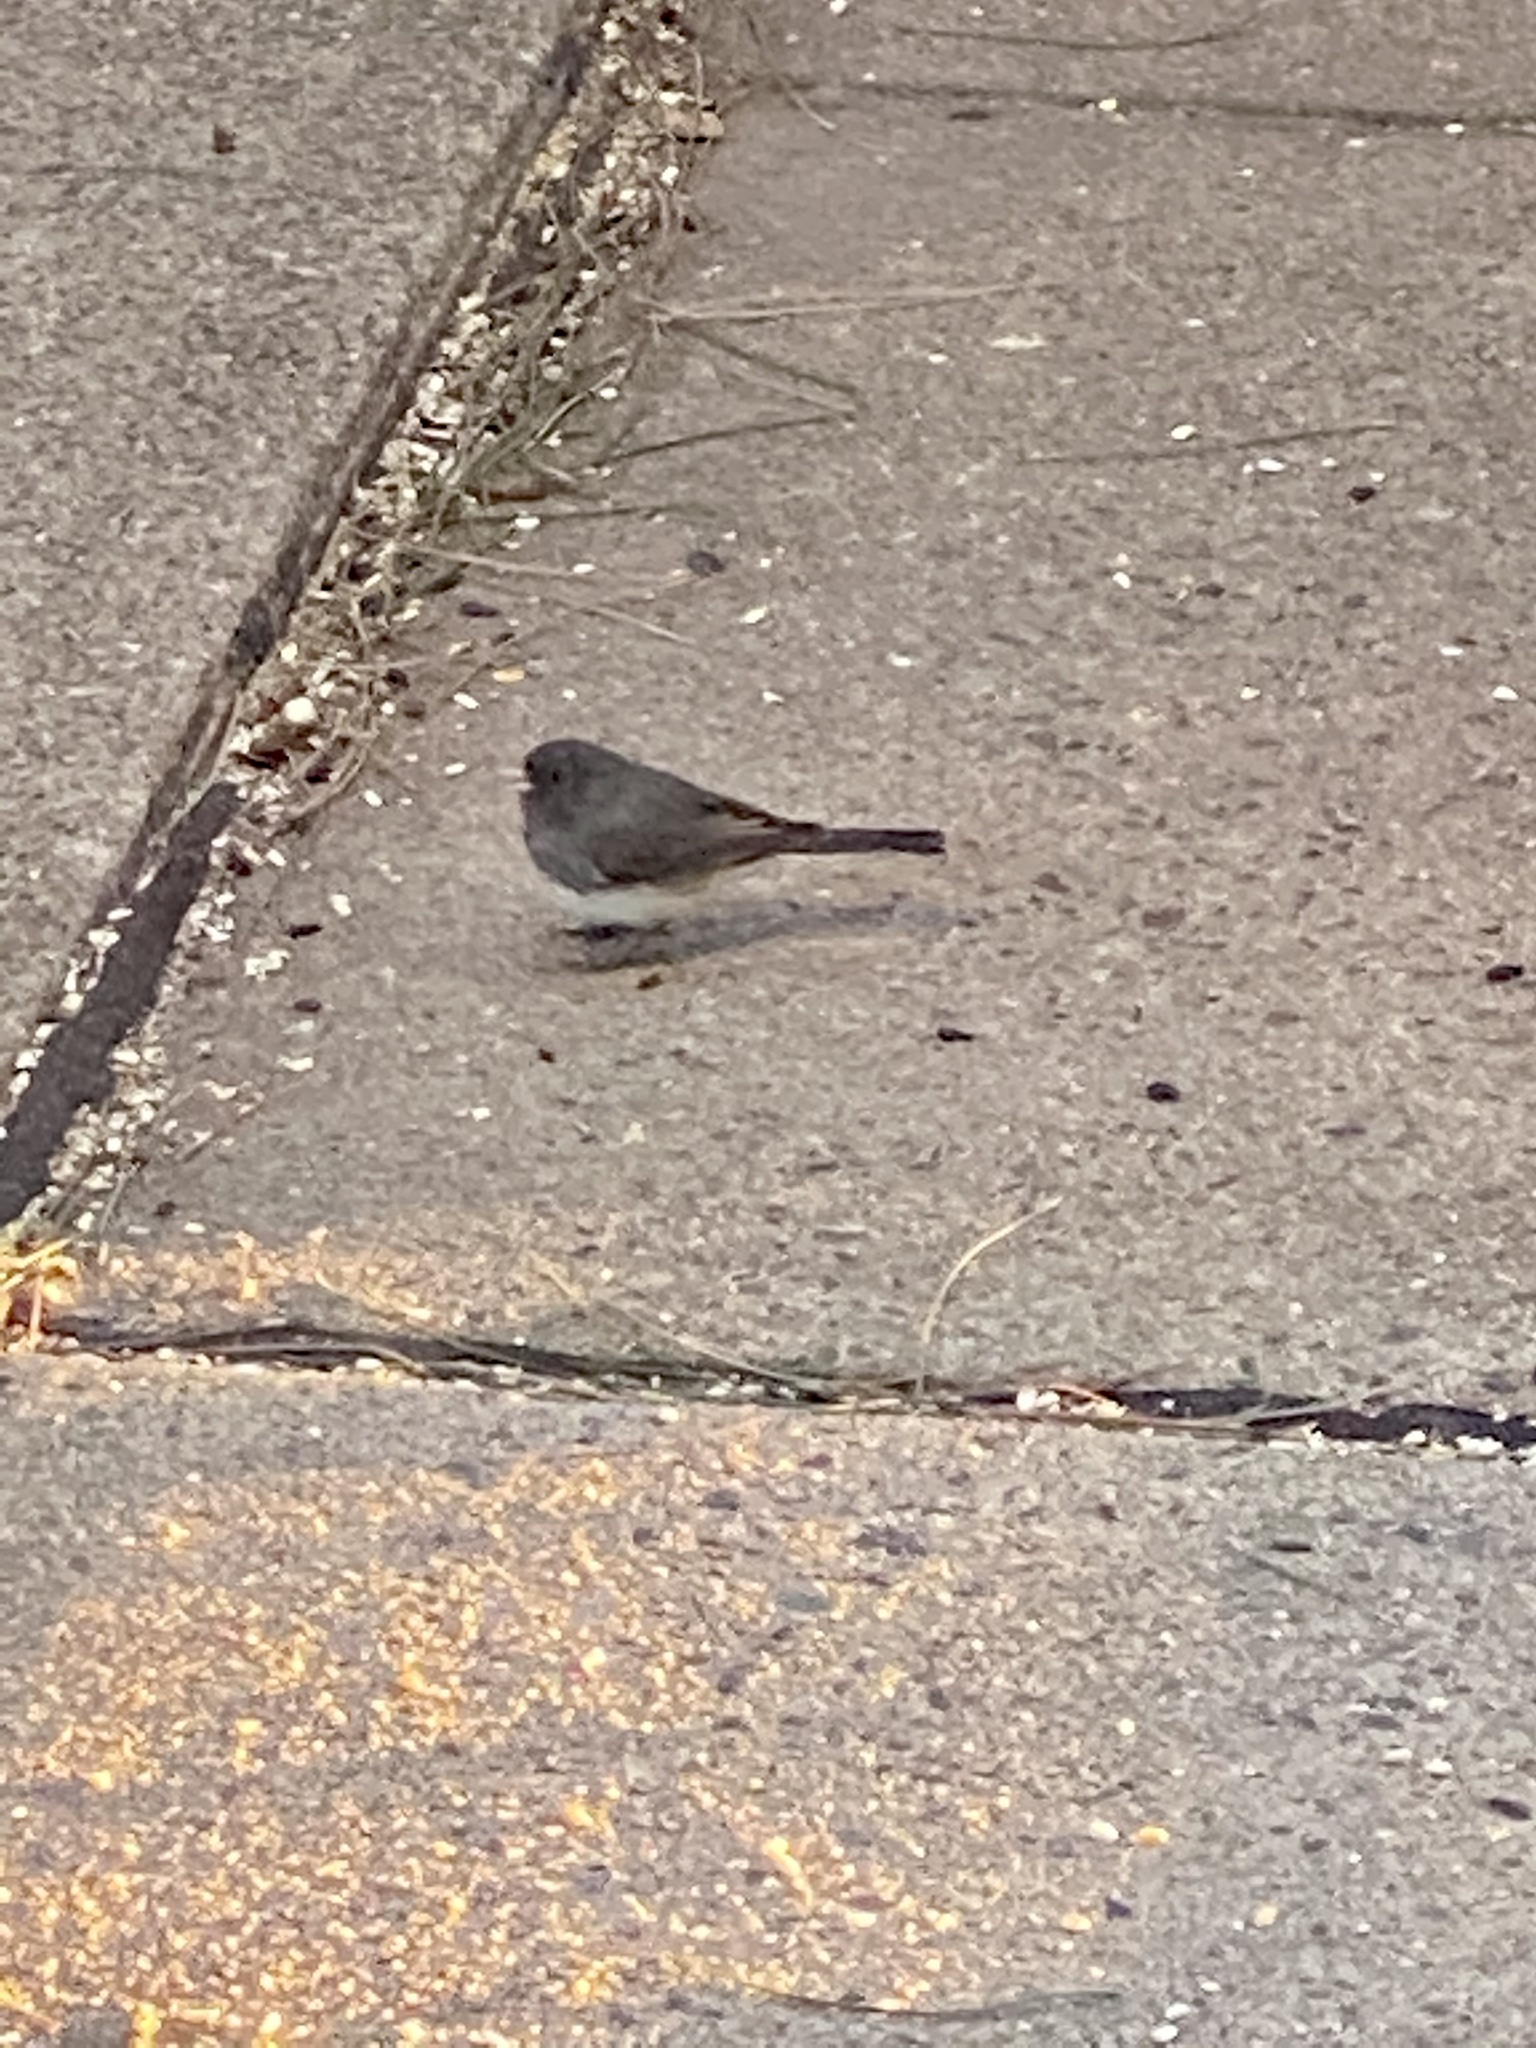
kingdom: Animalia
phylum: Chordata
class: Aves
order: Passeriformes
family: Passerellidae
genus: Junco
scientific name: Junco hyemalis
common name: Dark-eyed junco
